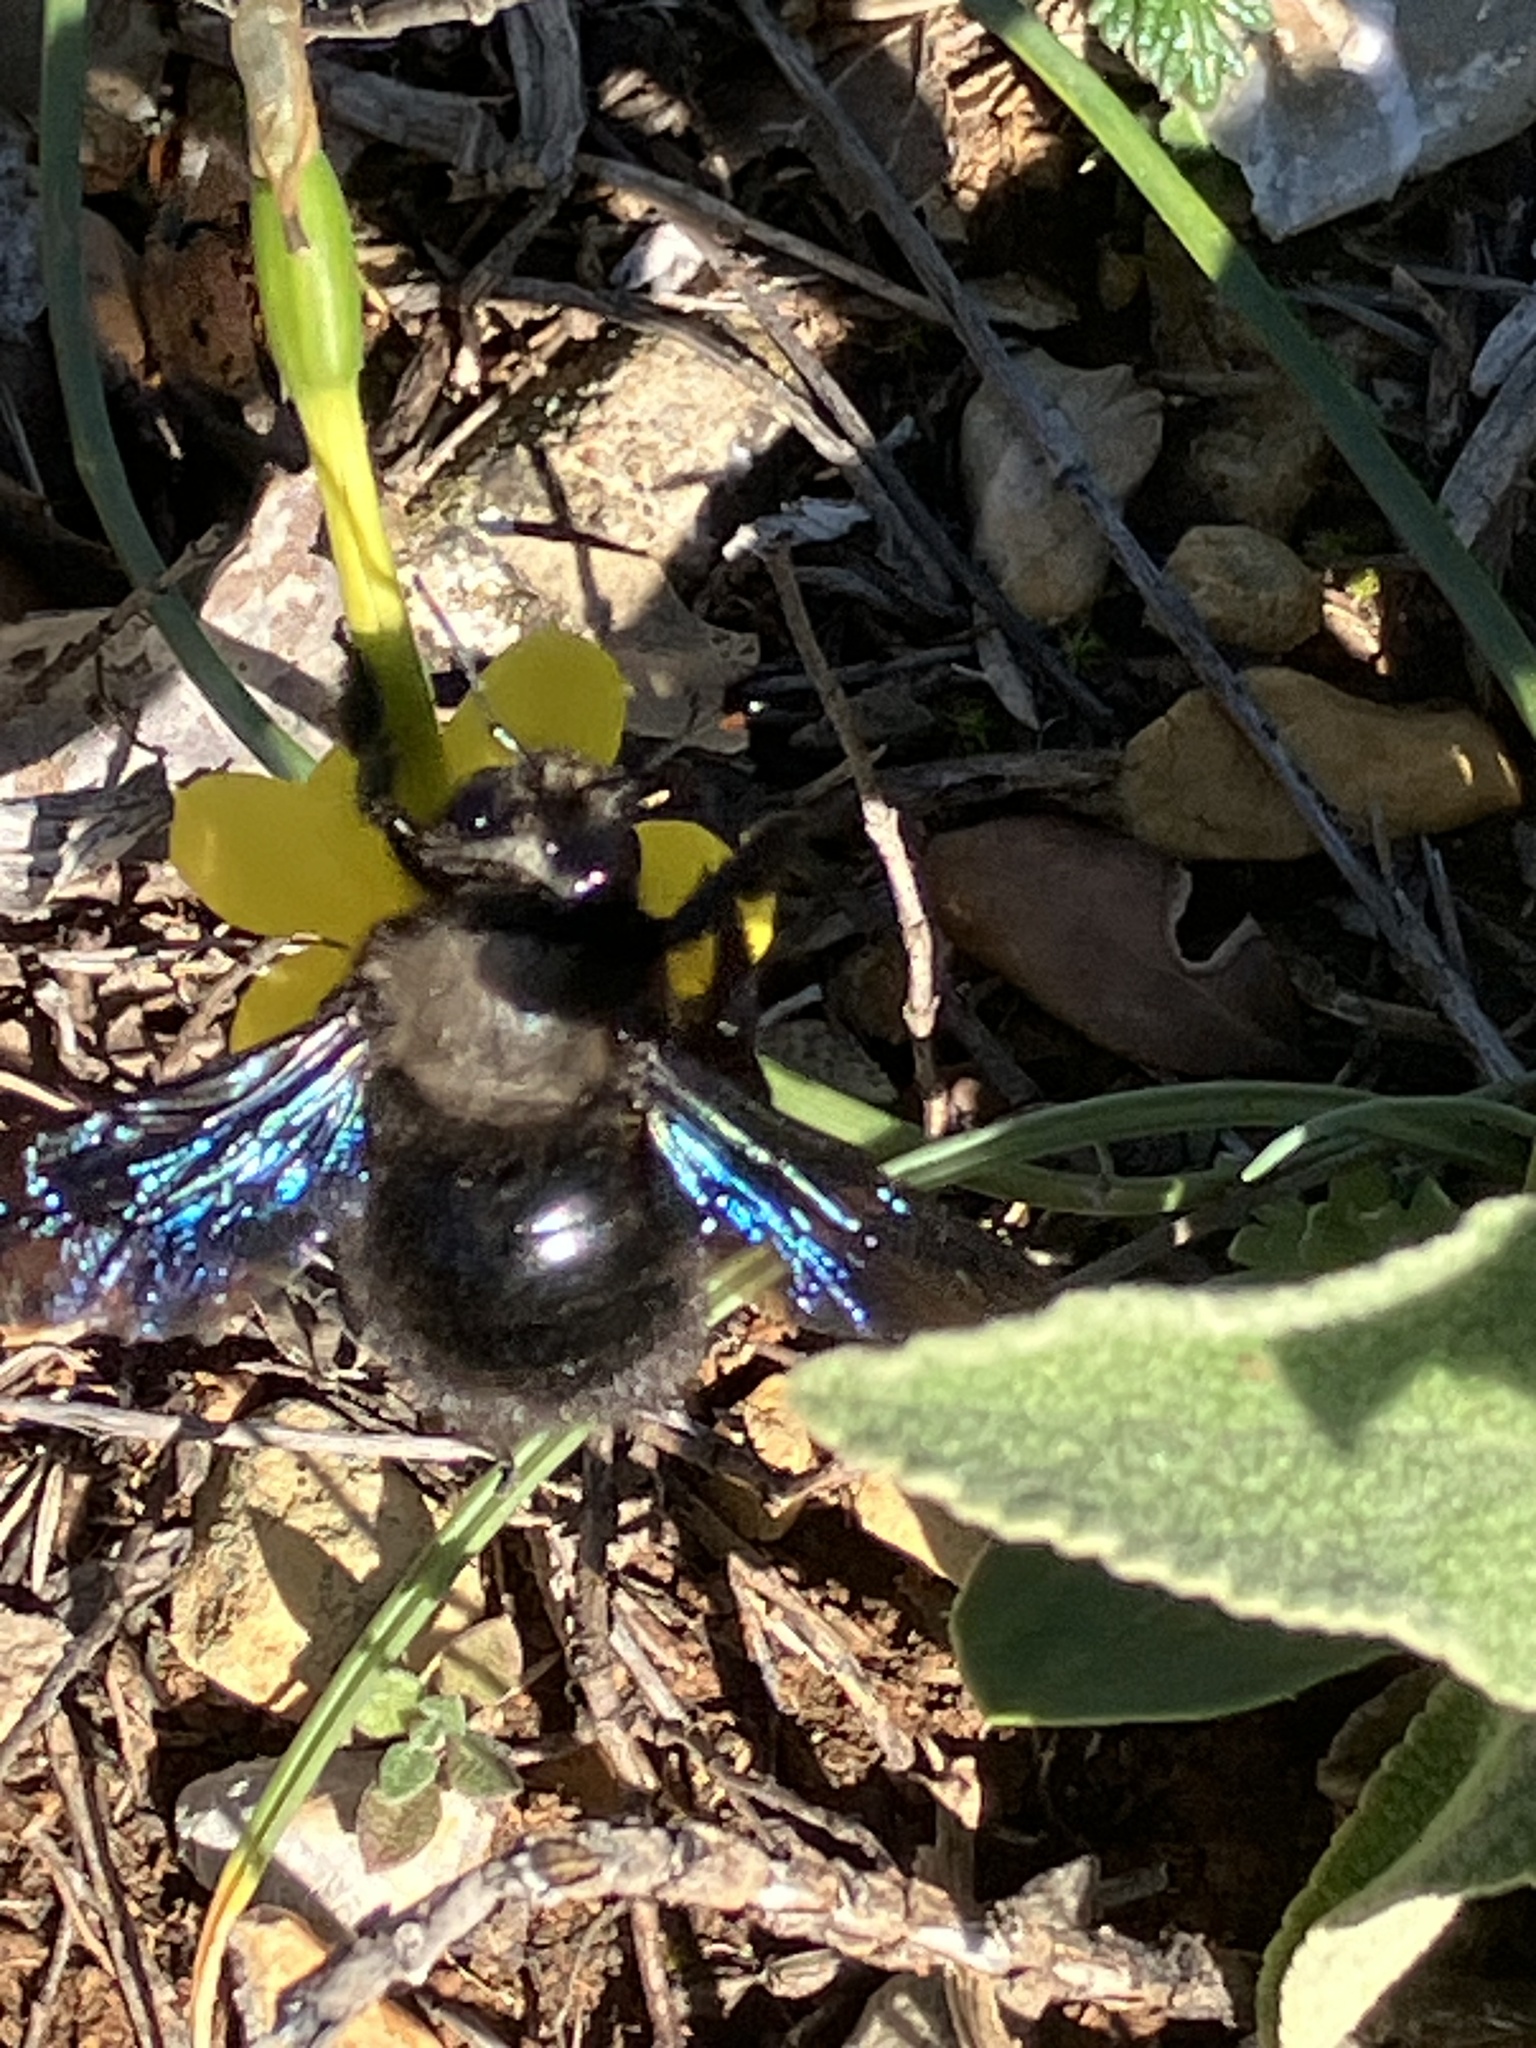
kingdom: Animalia
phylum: Arthropoda
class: Insecta
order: Hymenoptera
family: Apidae
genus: Xylocopa
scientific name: Xylocopa violacea
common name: Violet carpenter bee
